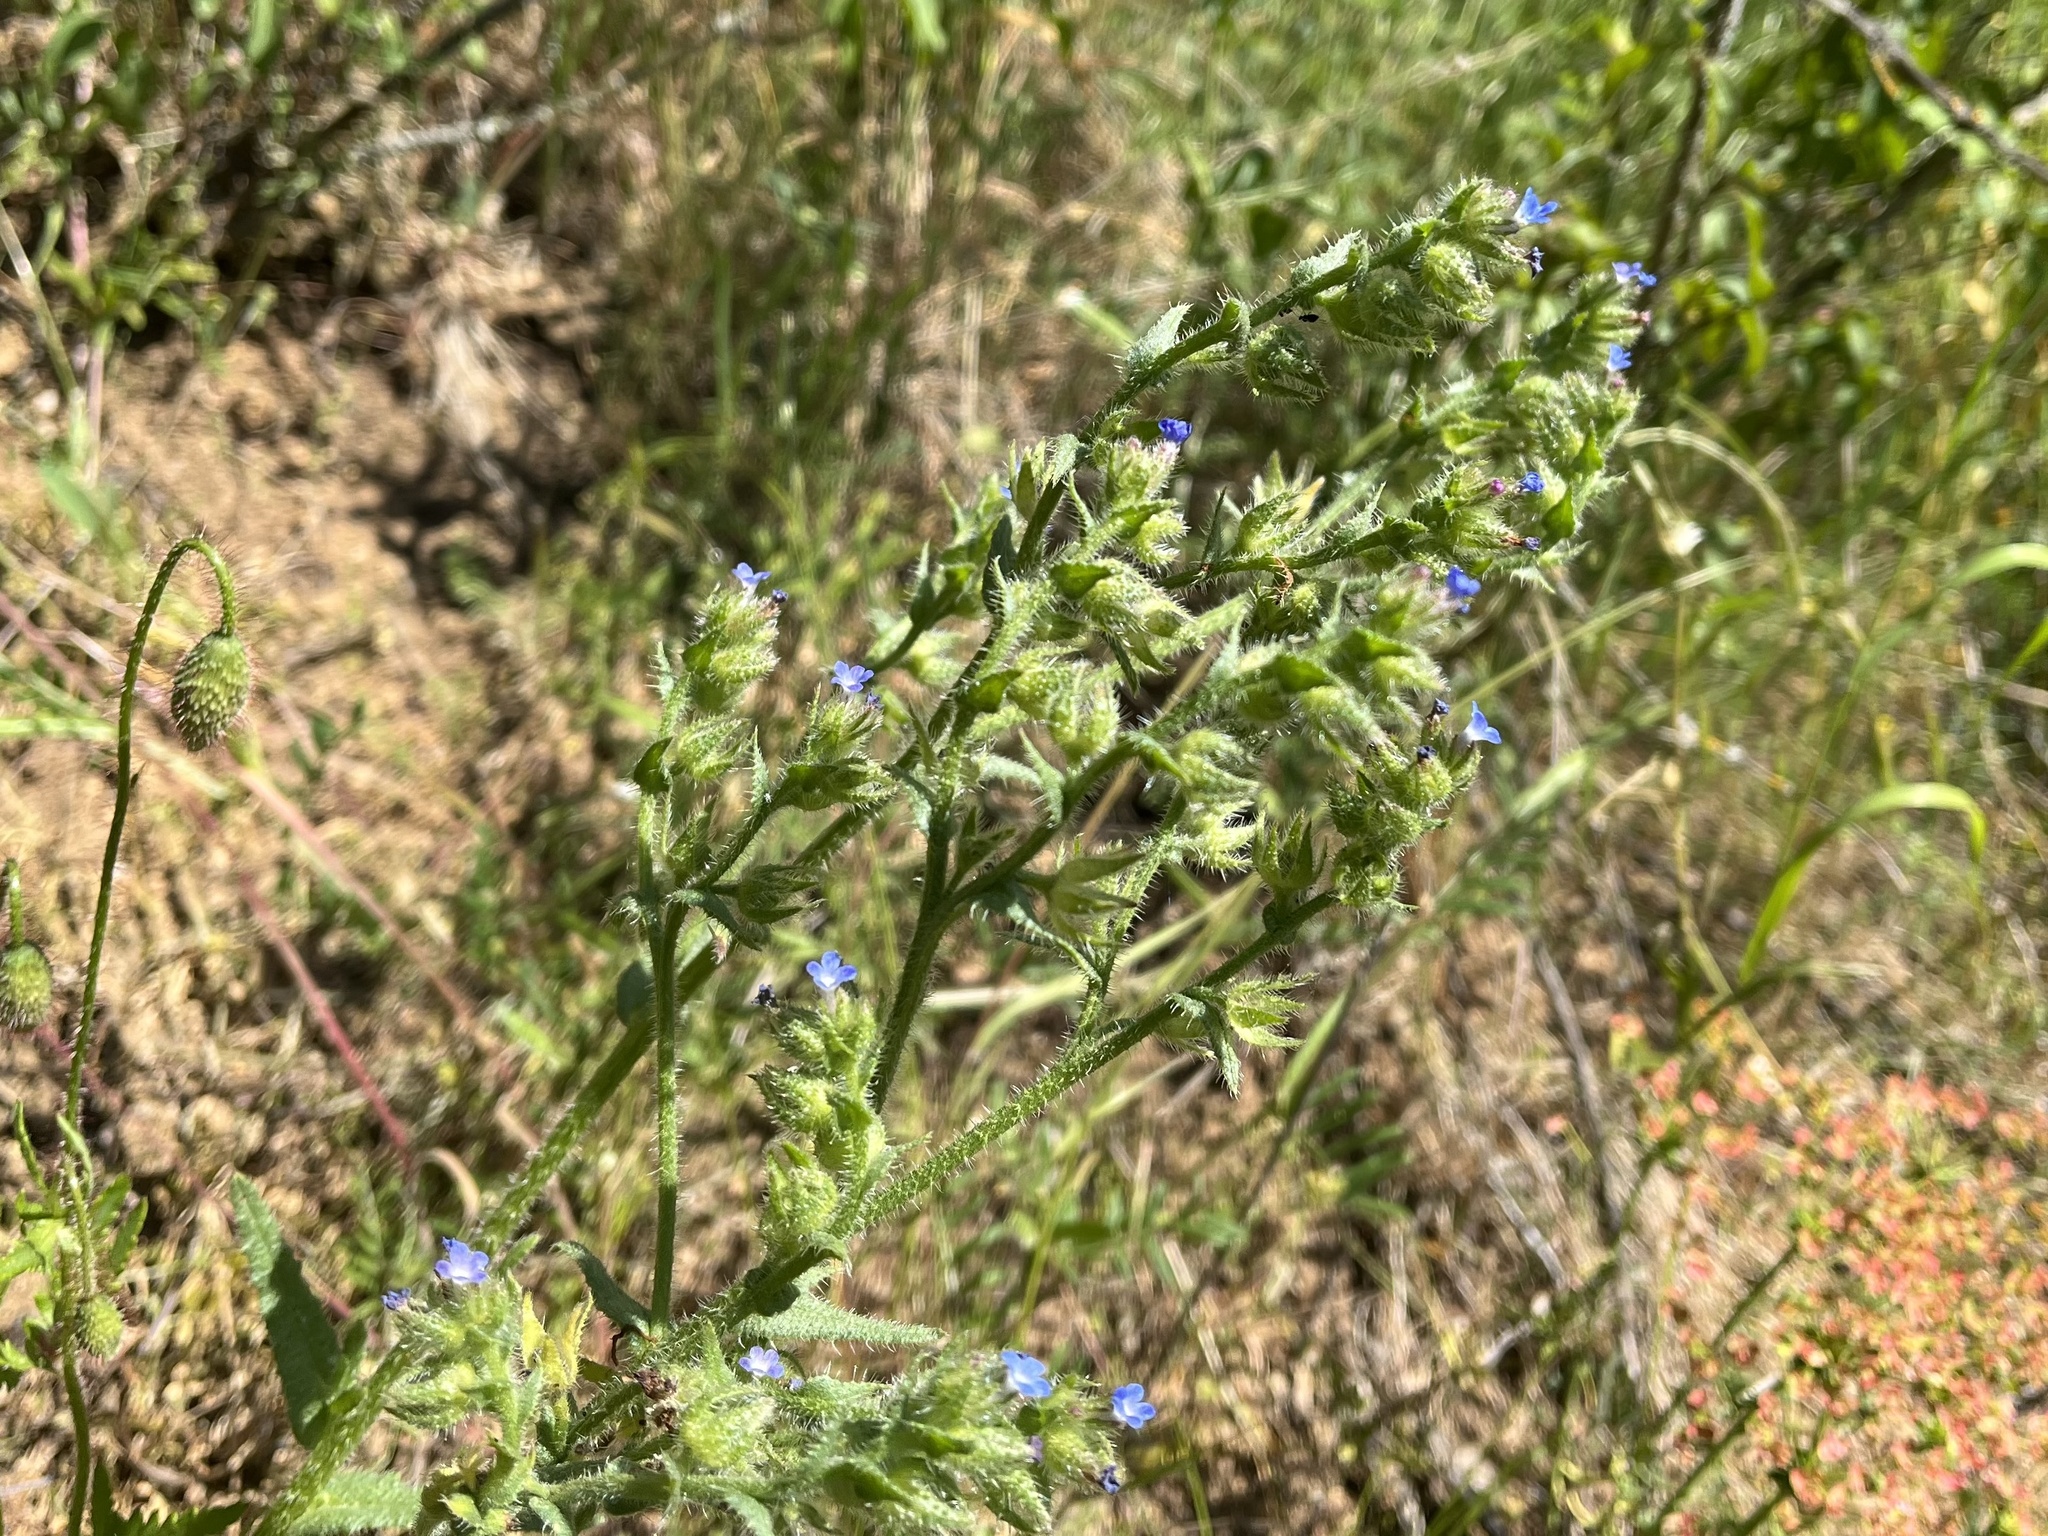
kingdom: Plantae
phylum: Tracheophyta
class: Magnoliopsida
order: Boraginales
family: Boraginaceae
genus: Lycopsis
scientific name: Lycopsis arvensis
